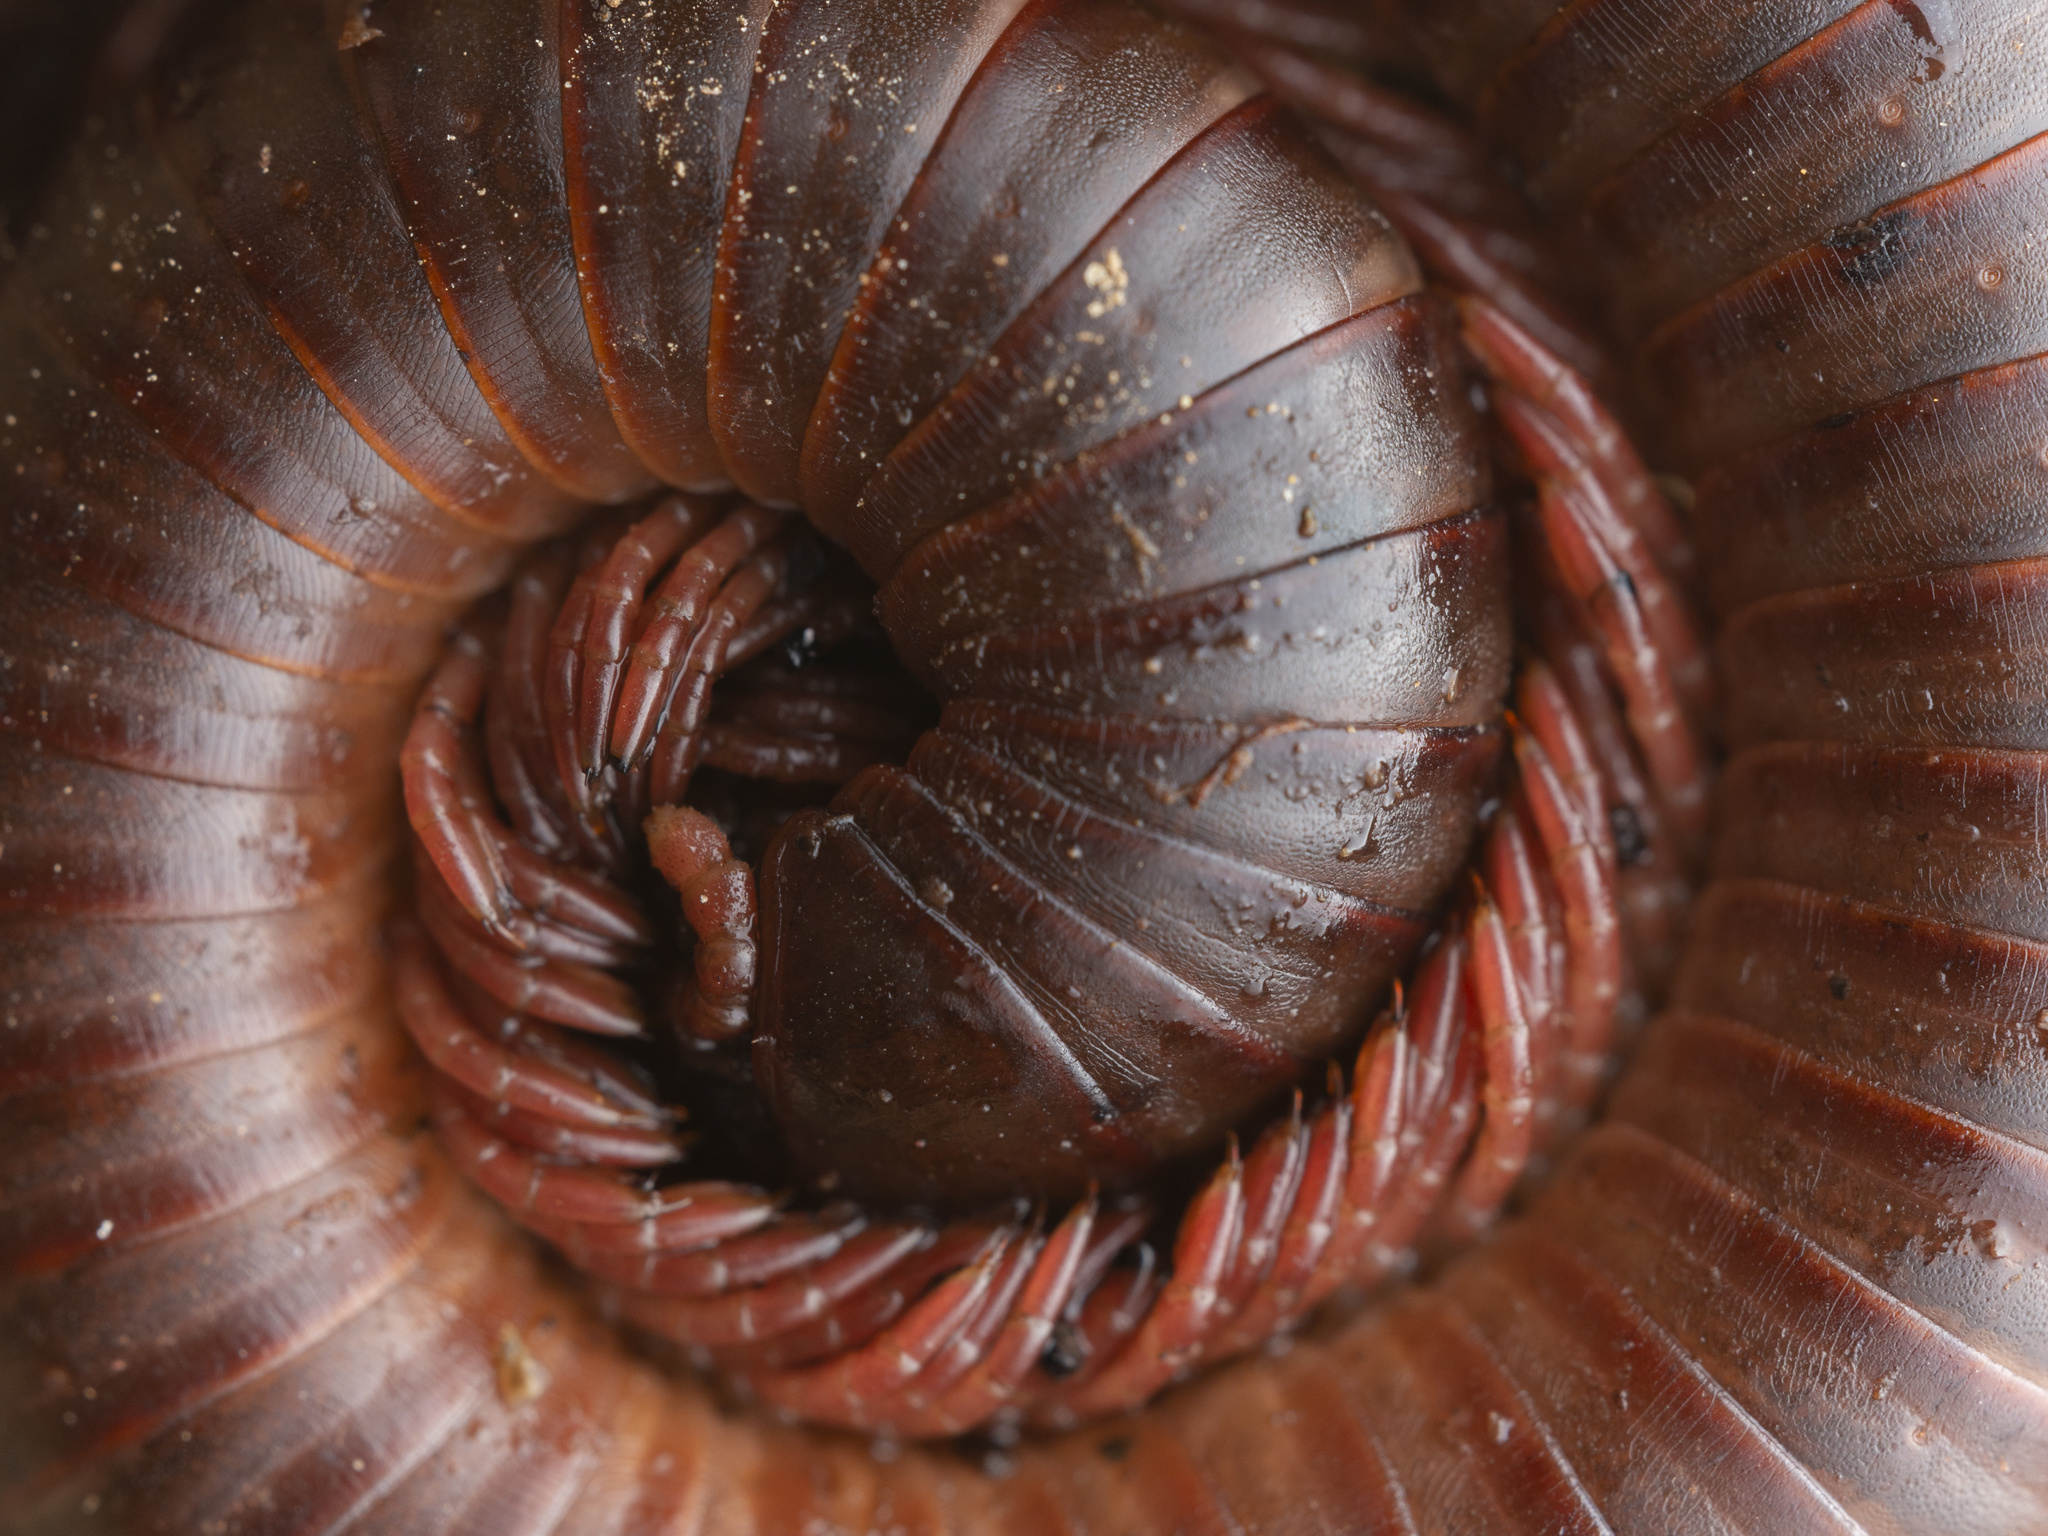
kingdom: Animalia
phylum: Arthropoda
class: Diplopoda
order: Spirobolida
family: Pachybolidae
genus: Trigoniulus
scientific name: Trigoniulus corallinus
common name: Millipede
